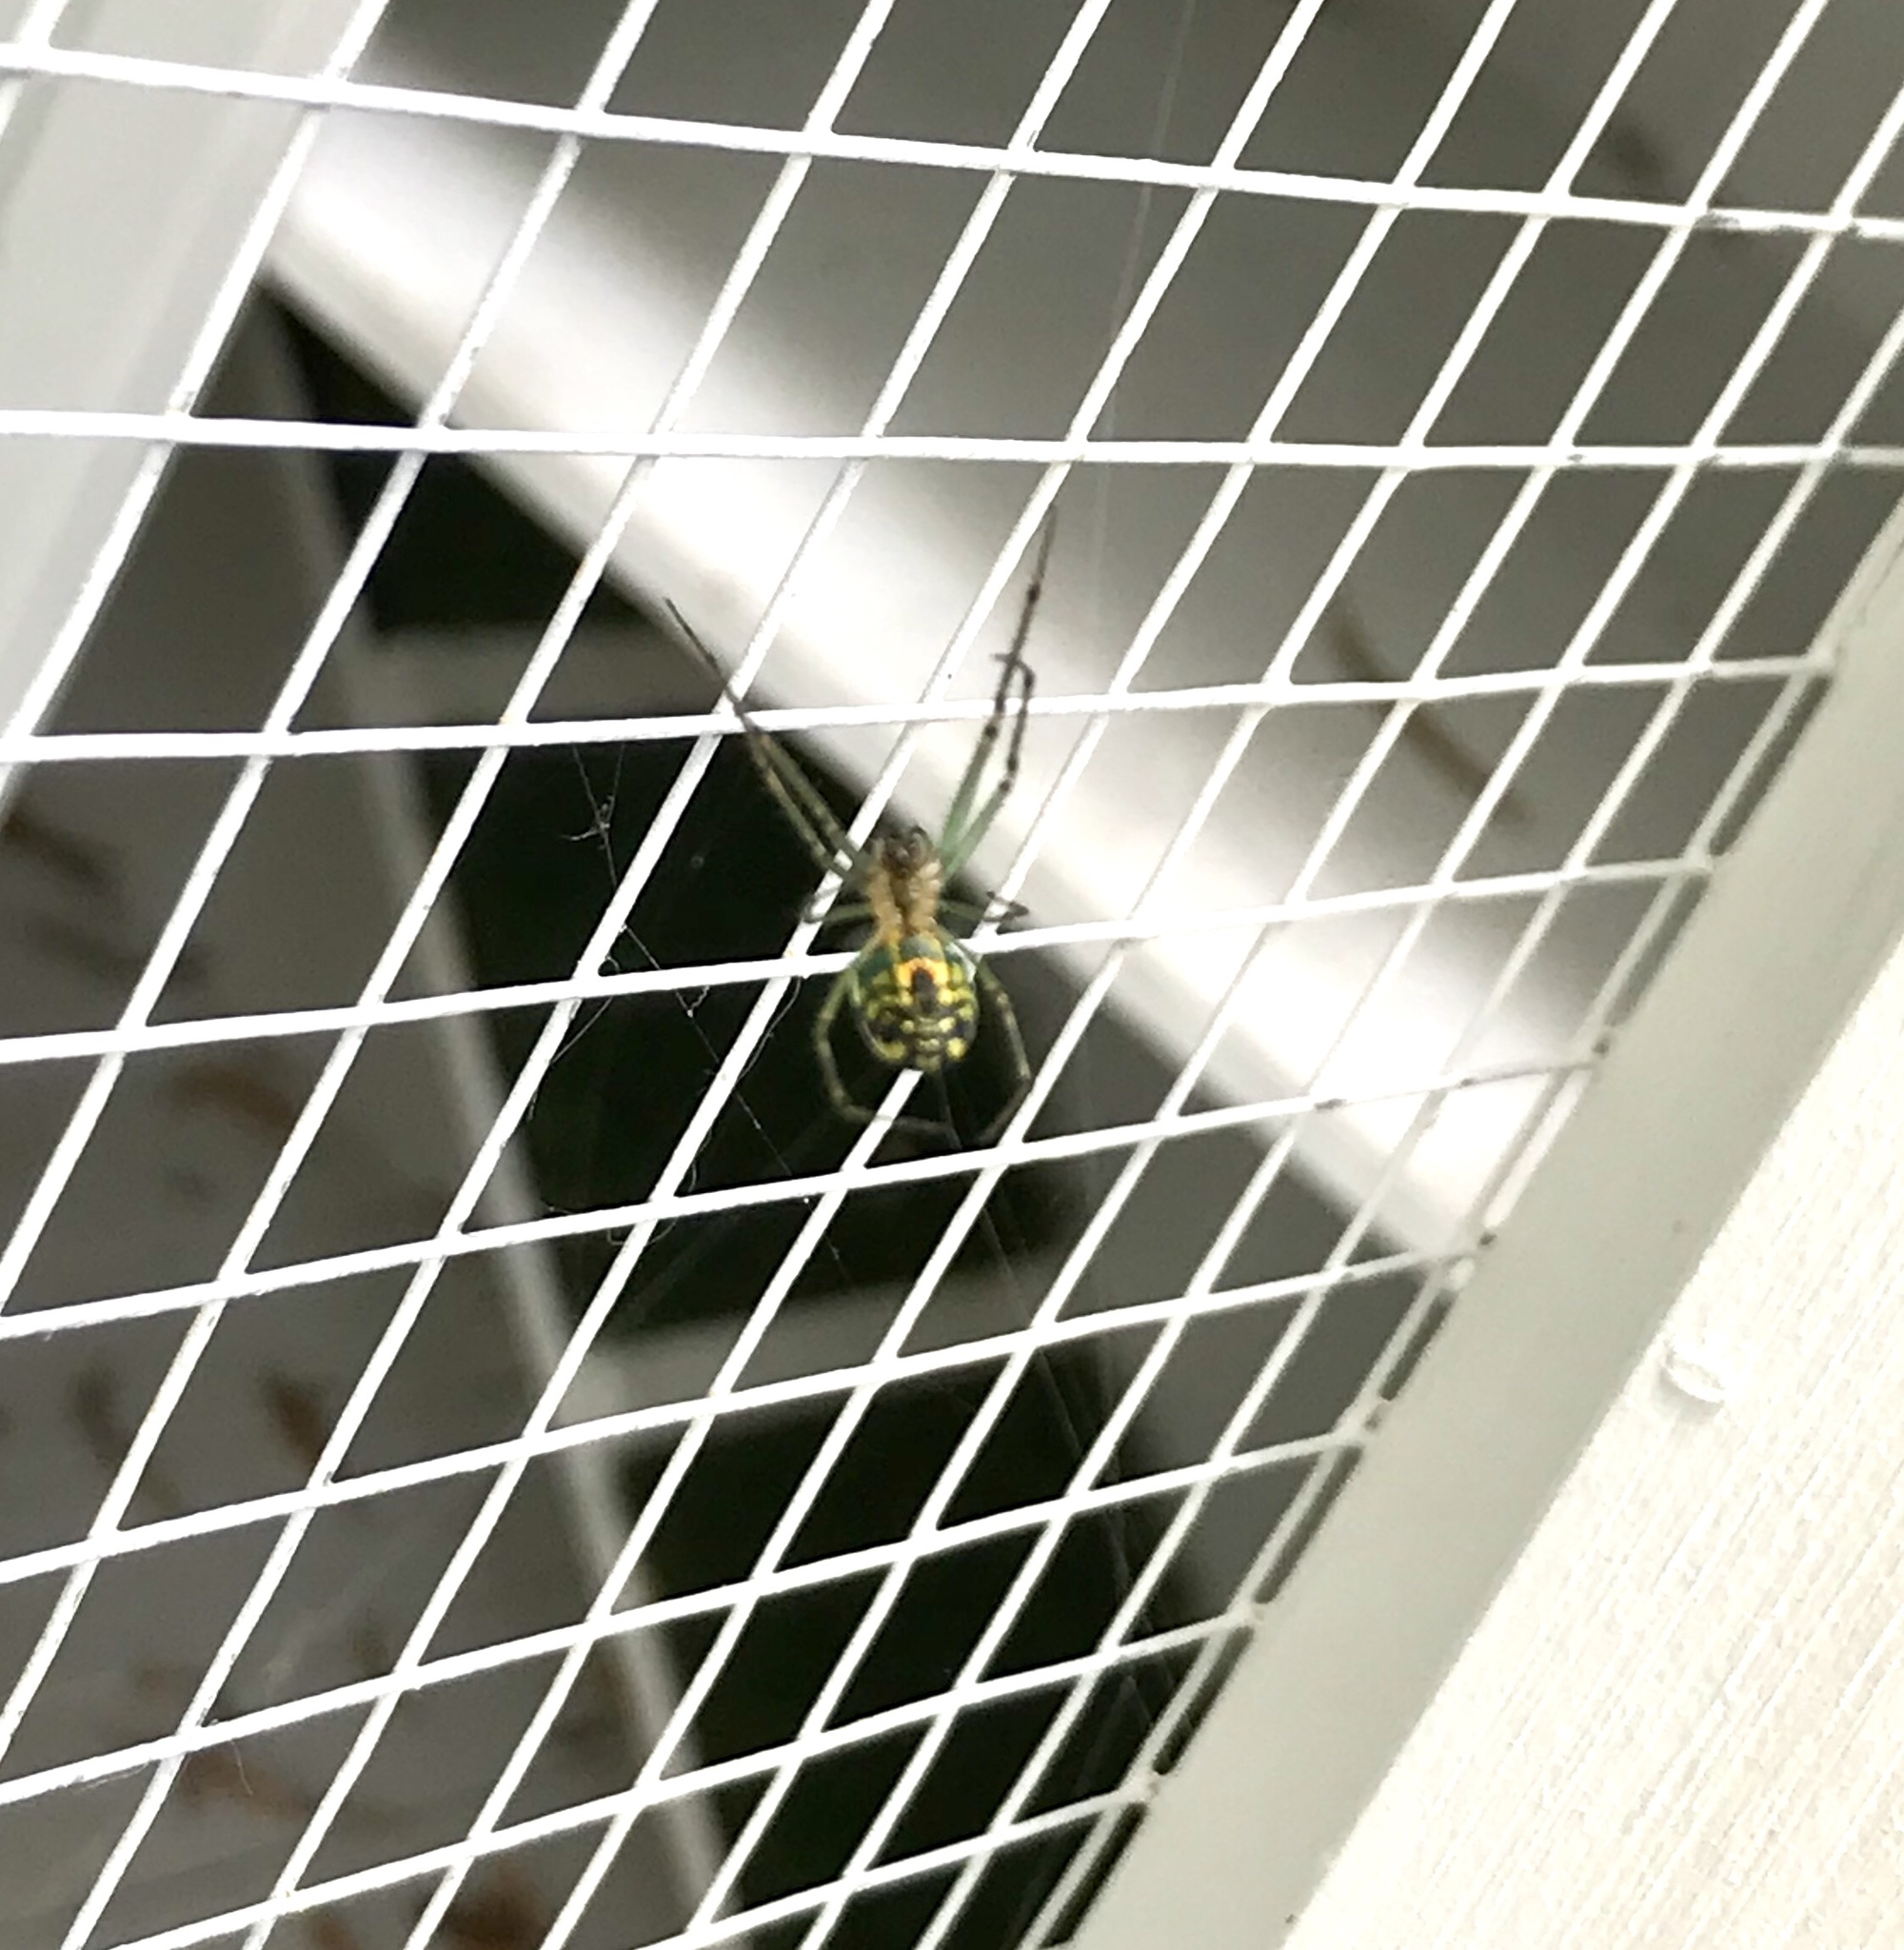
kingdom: Animalia
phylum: Arthropoda
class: Arachnida
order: Araneae
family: Tetragnathidae
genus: Leucauge
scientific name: Leucauge venusta
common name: Longjawed orb weavers
